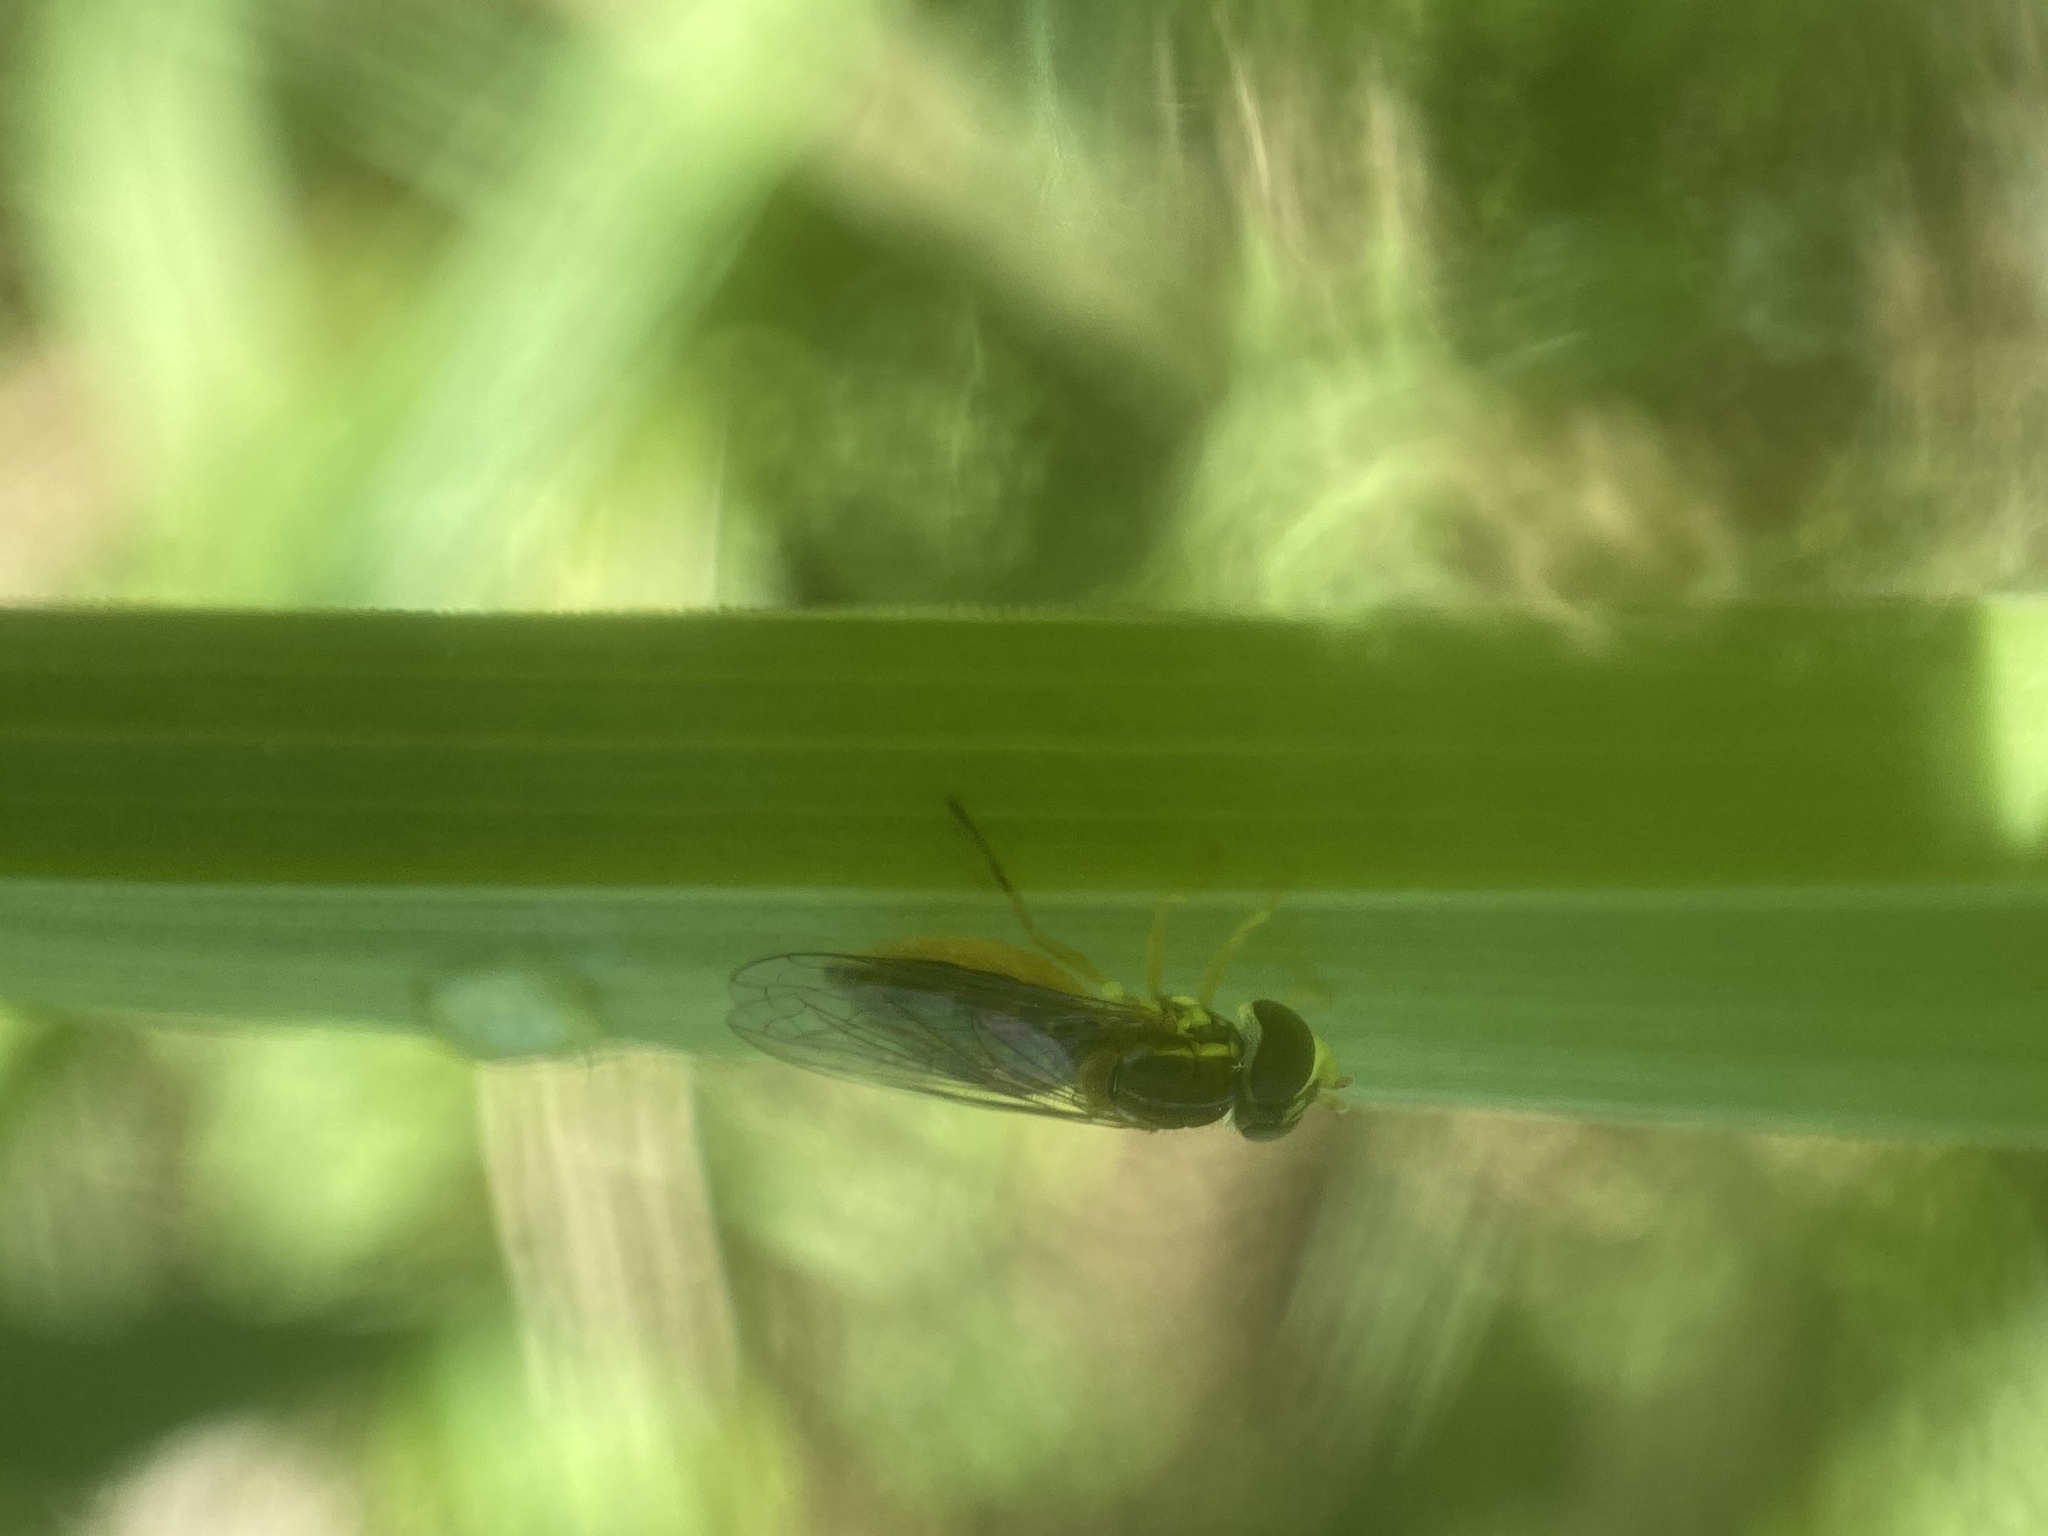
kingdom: Animalia
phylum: Arthropoda
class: Insecta
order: Diptera
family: Syrphidae
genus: Toxomerus
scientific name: Toxomerus marginatus
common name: Syrphid fly
